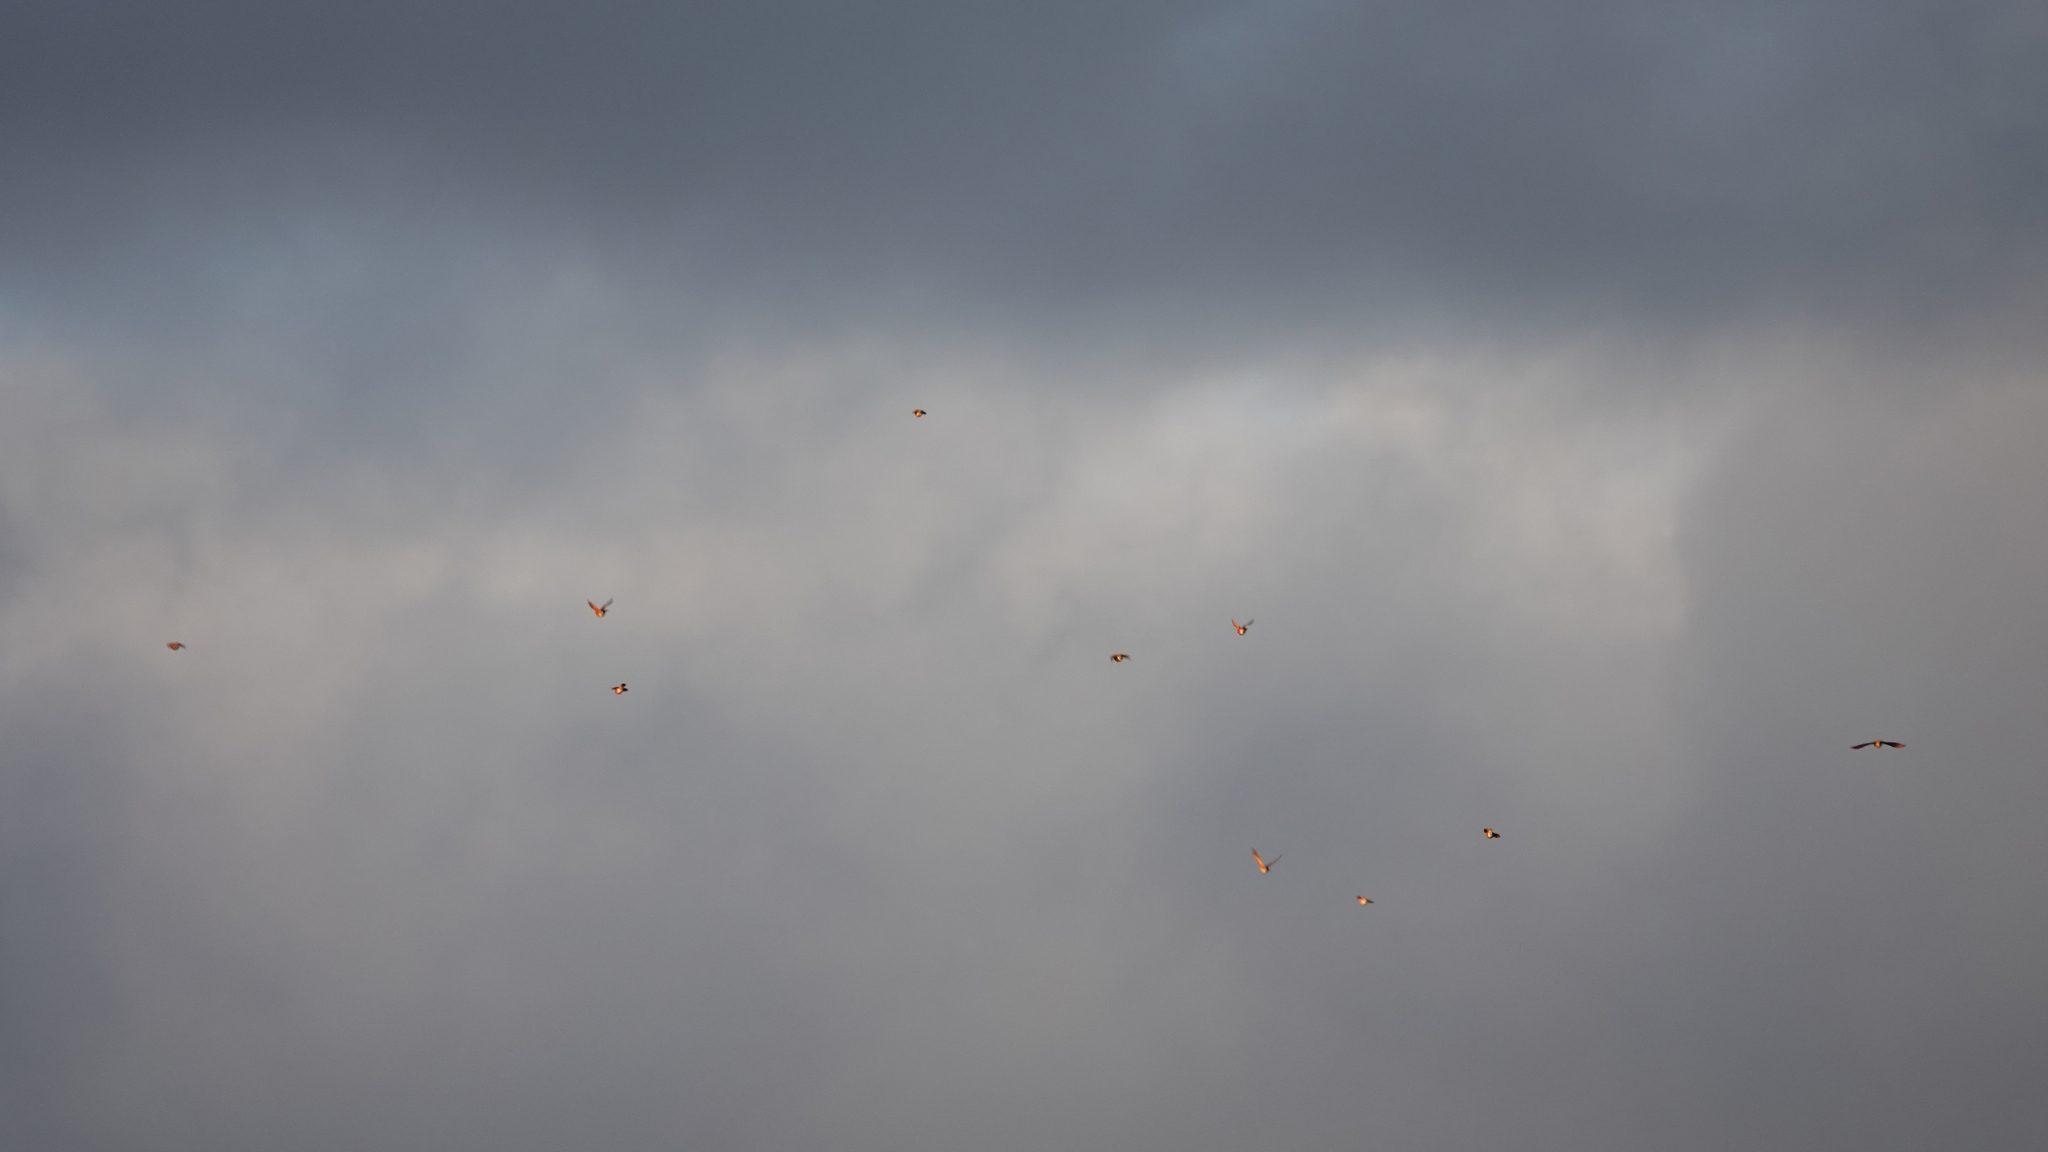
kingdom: Animalia
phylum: Chordata
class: Aves
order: Passeriformes
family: Turdidae
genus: Turdus
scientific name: Turdus migratorius
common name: American robin
